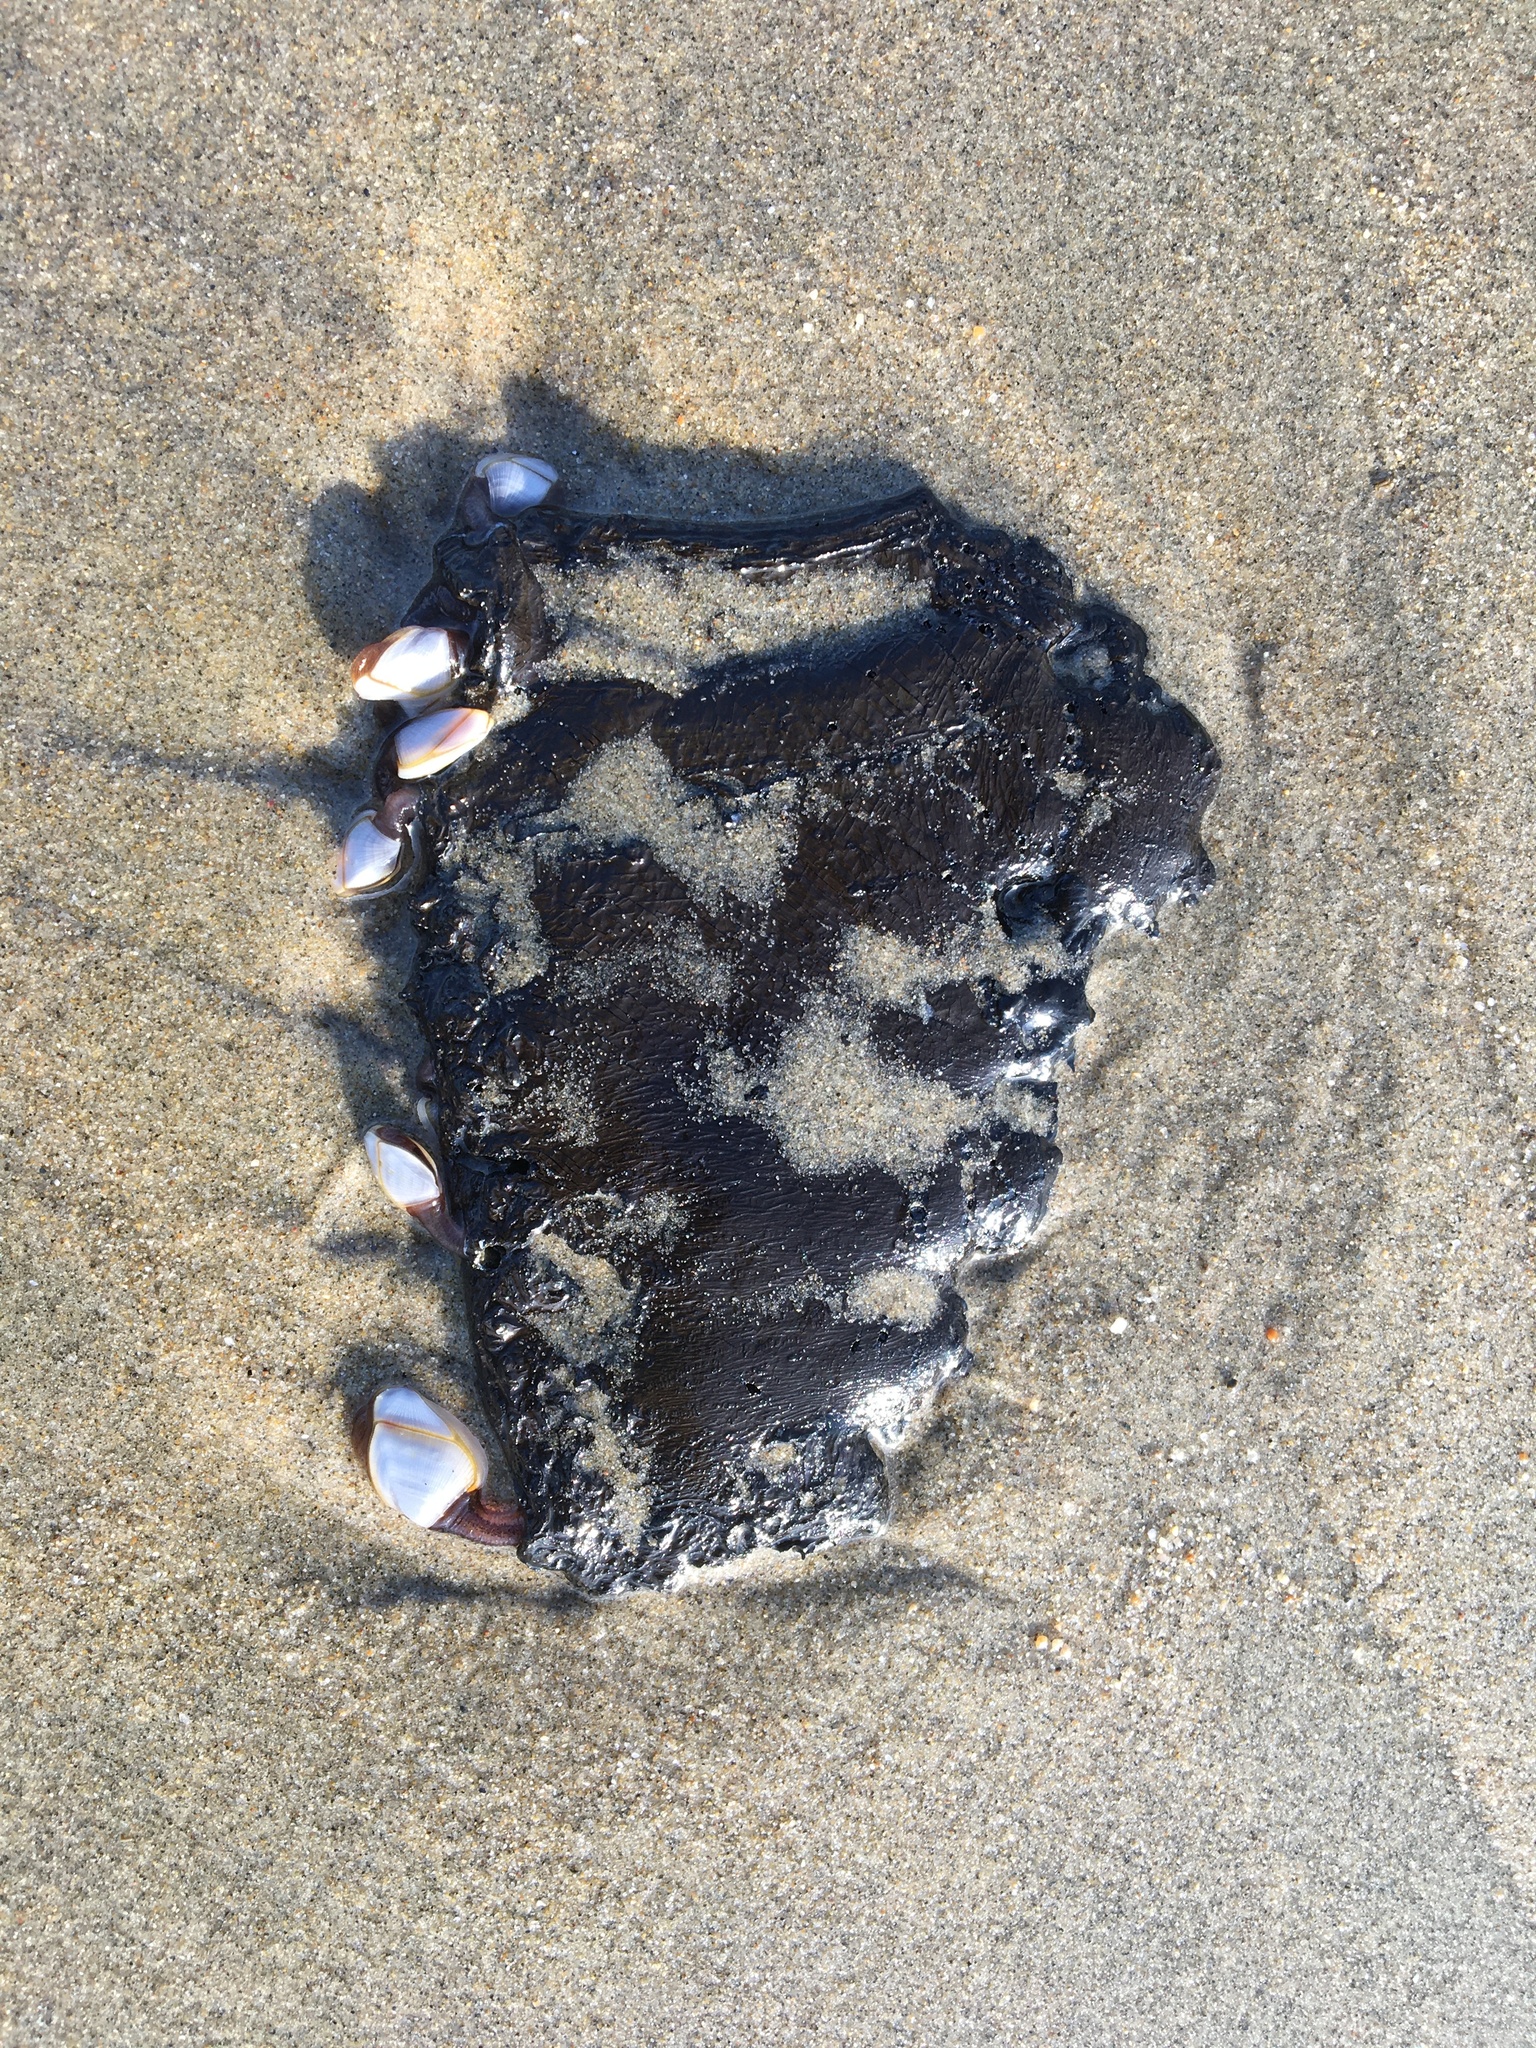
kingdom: Animalia
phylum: Arthropoda
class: Maxillopoda
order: Pedunculata
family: Lepadidae
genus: Lepas
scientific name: Lepas pacifica
